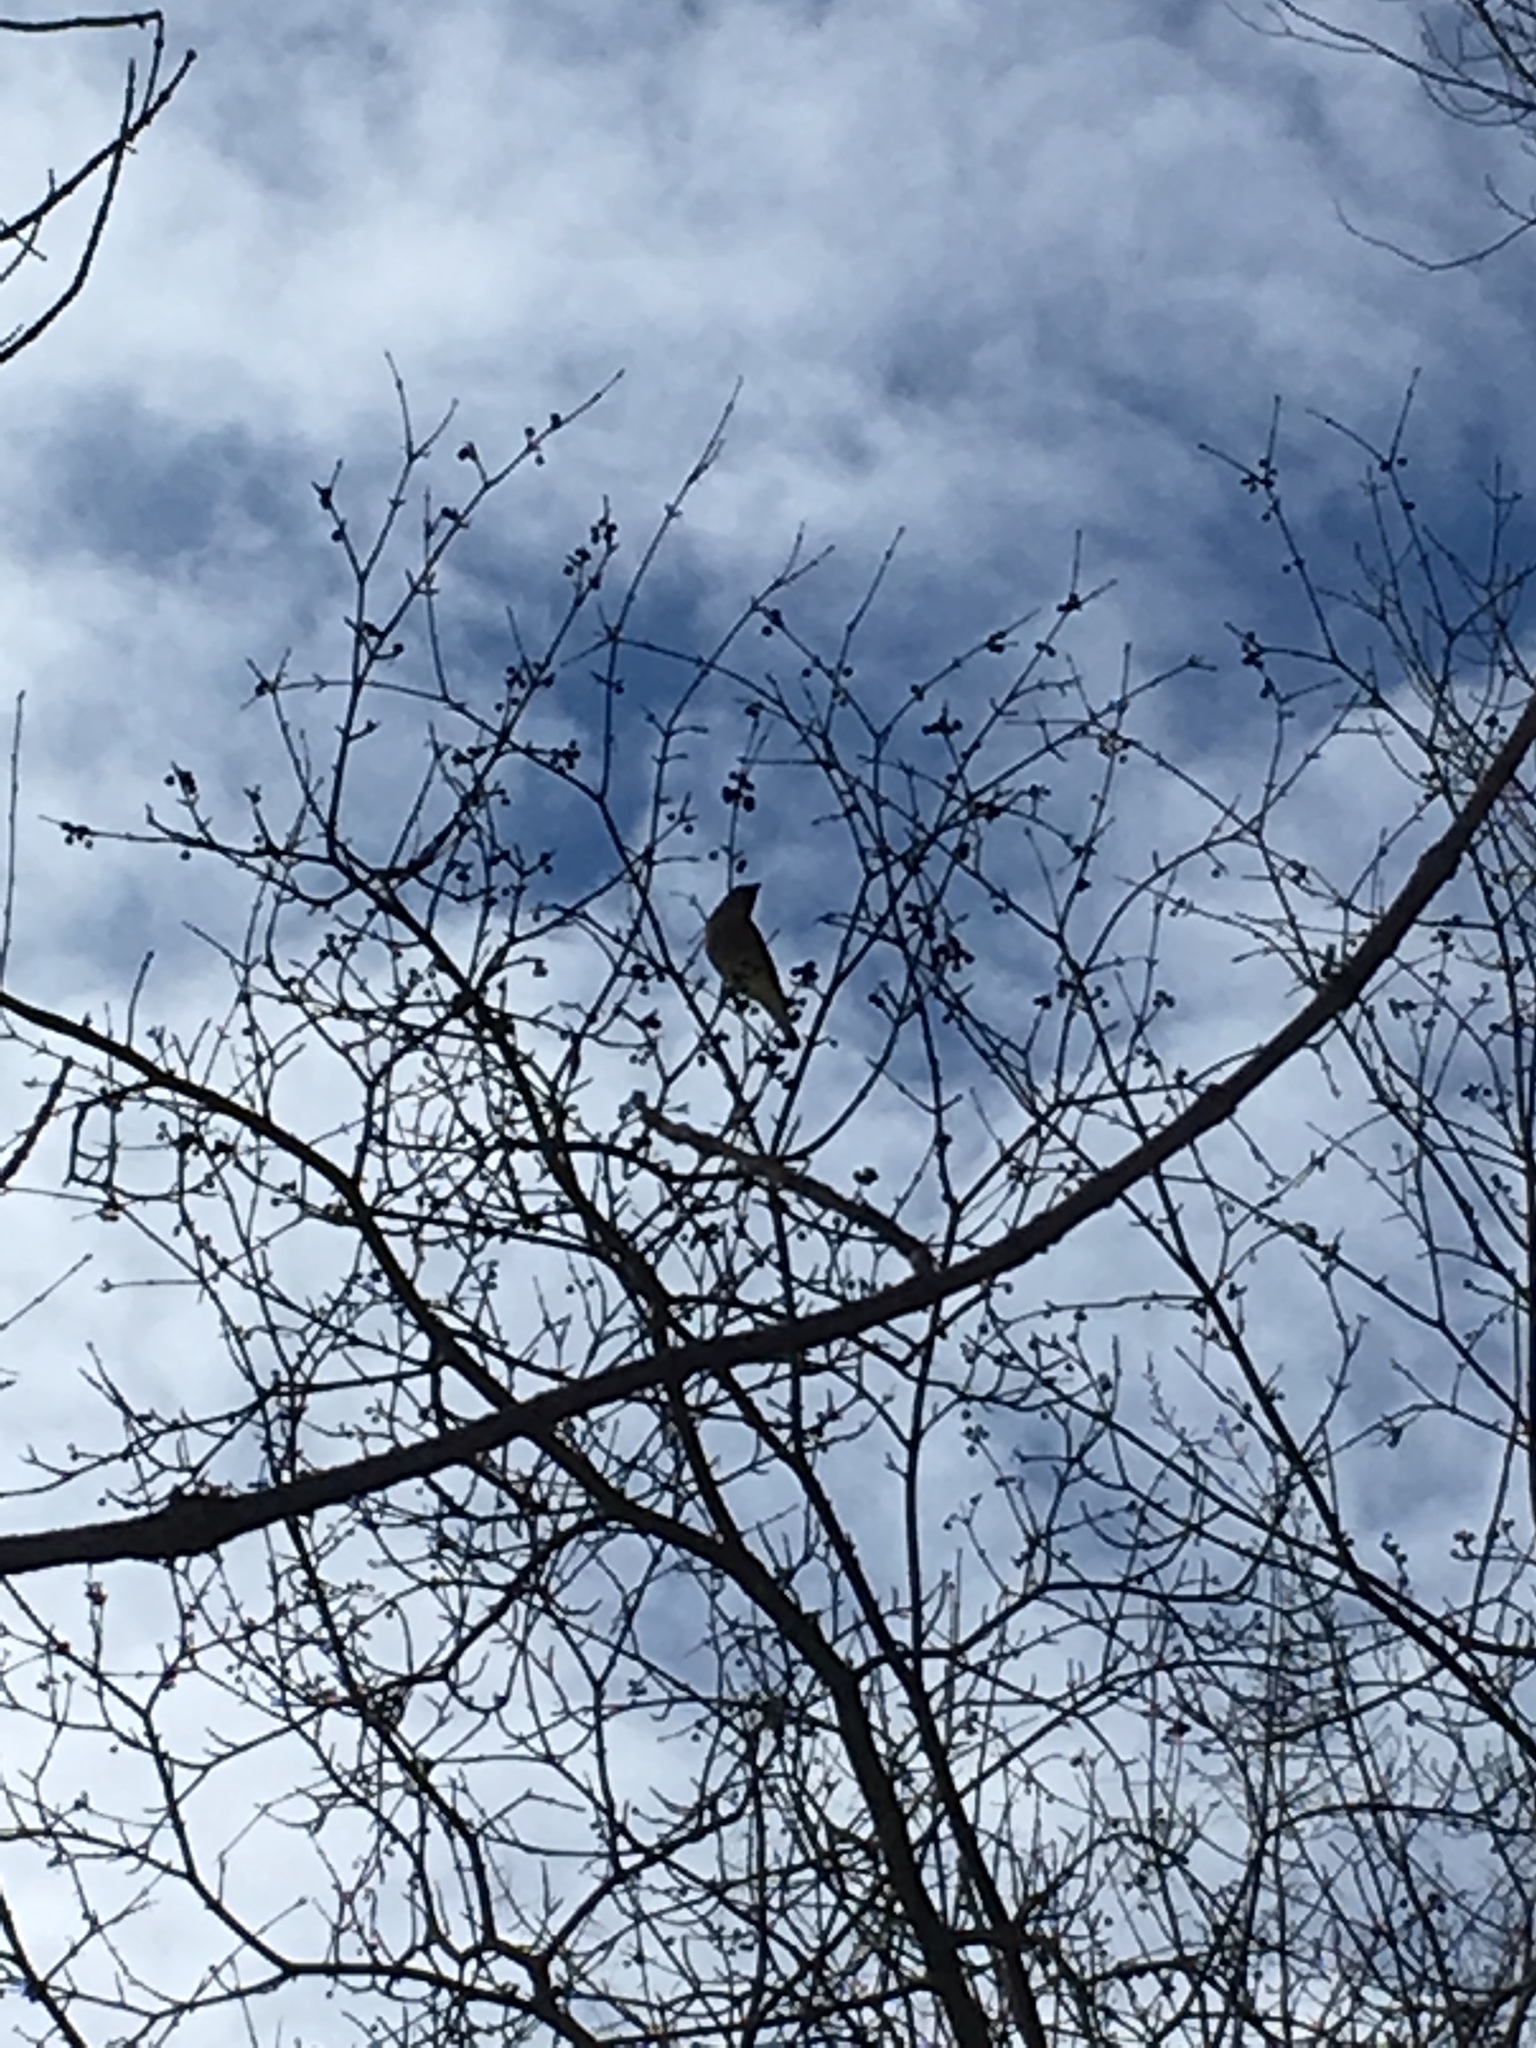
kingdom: Animalia
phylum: Chordata
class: Aves
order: Passeriformes
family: Bombycillidae
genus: Bombycilla
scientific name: Bombycilla cedrorum
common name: Cedar waxwing
